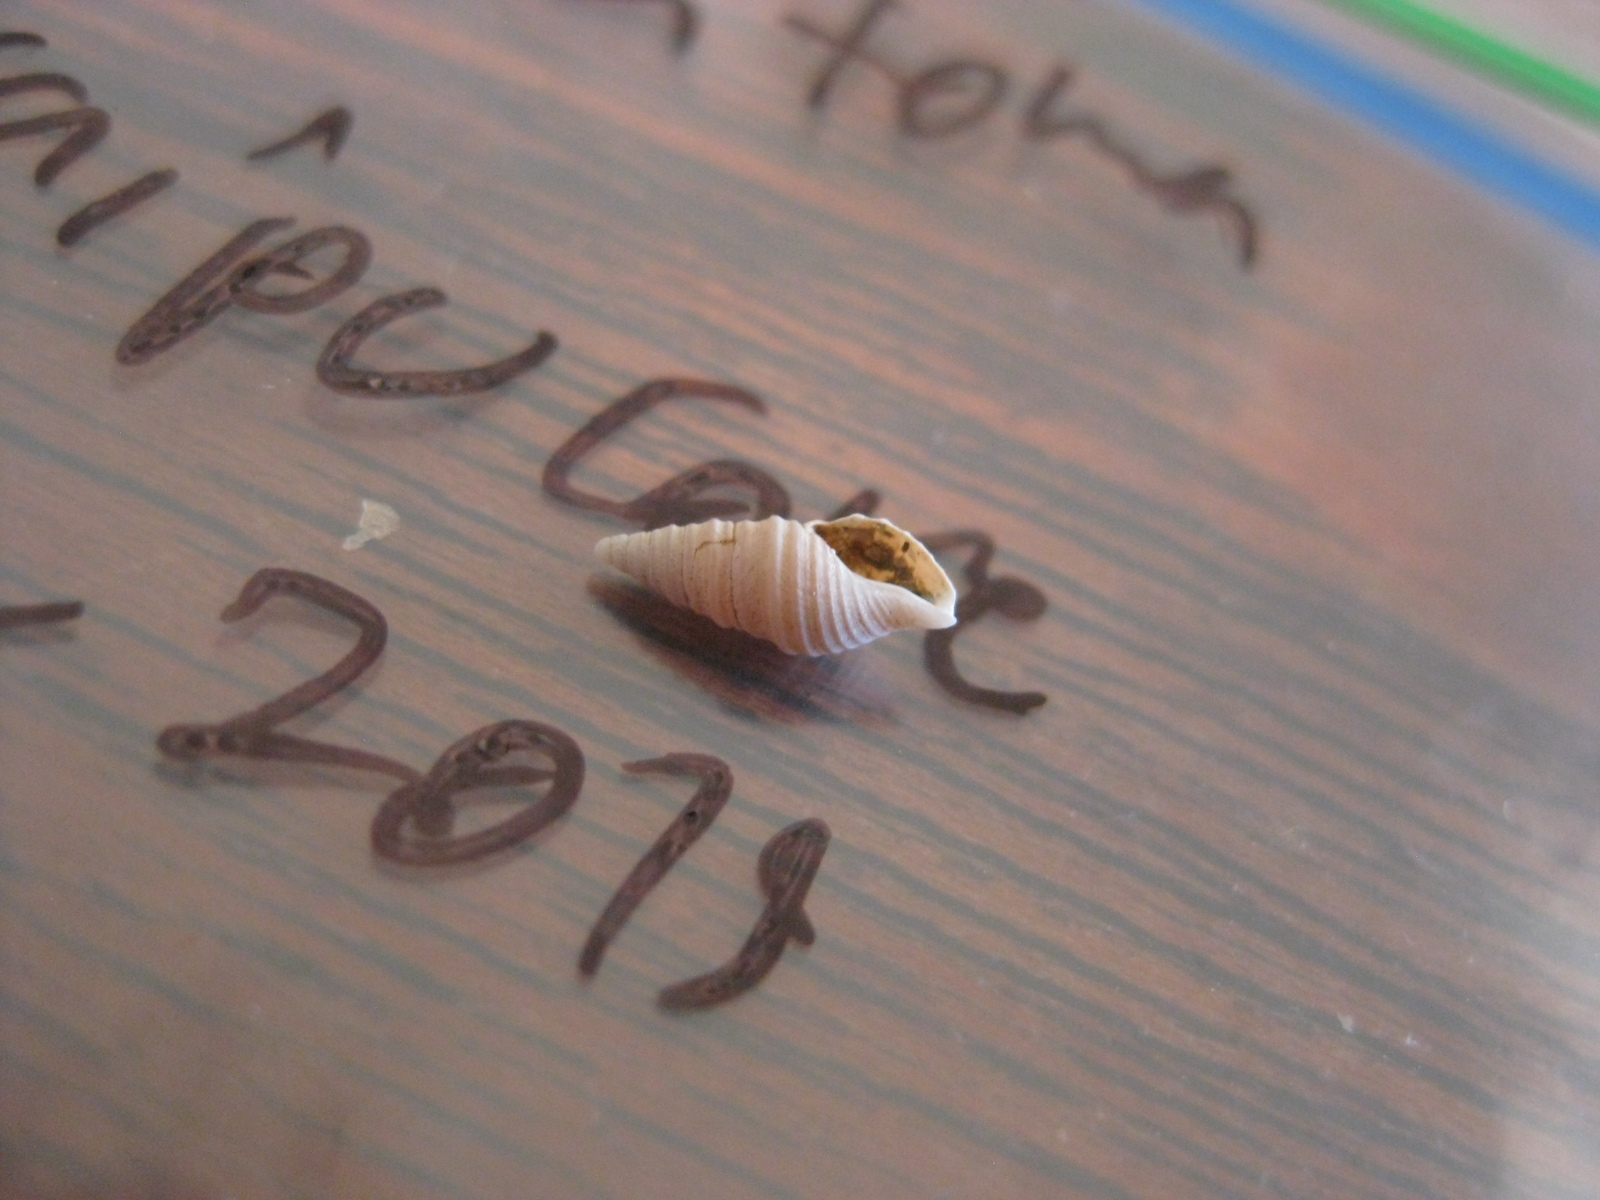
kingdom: Animalia
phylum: Mollusca
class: Gastropoda
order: Neogastropoda
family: Borsoniidae
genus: Maoritomella
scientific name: Maoritomella albula
